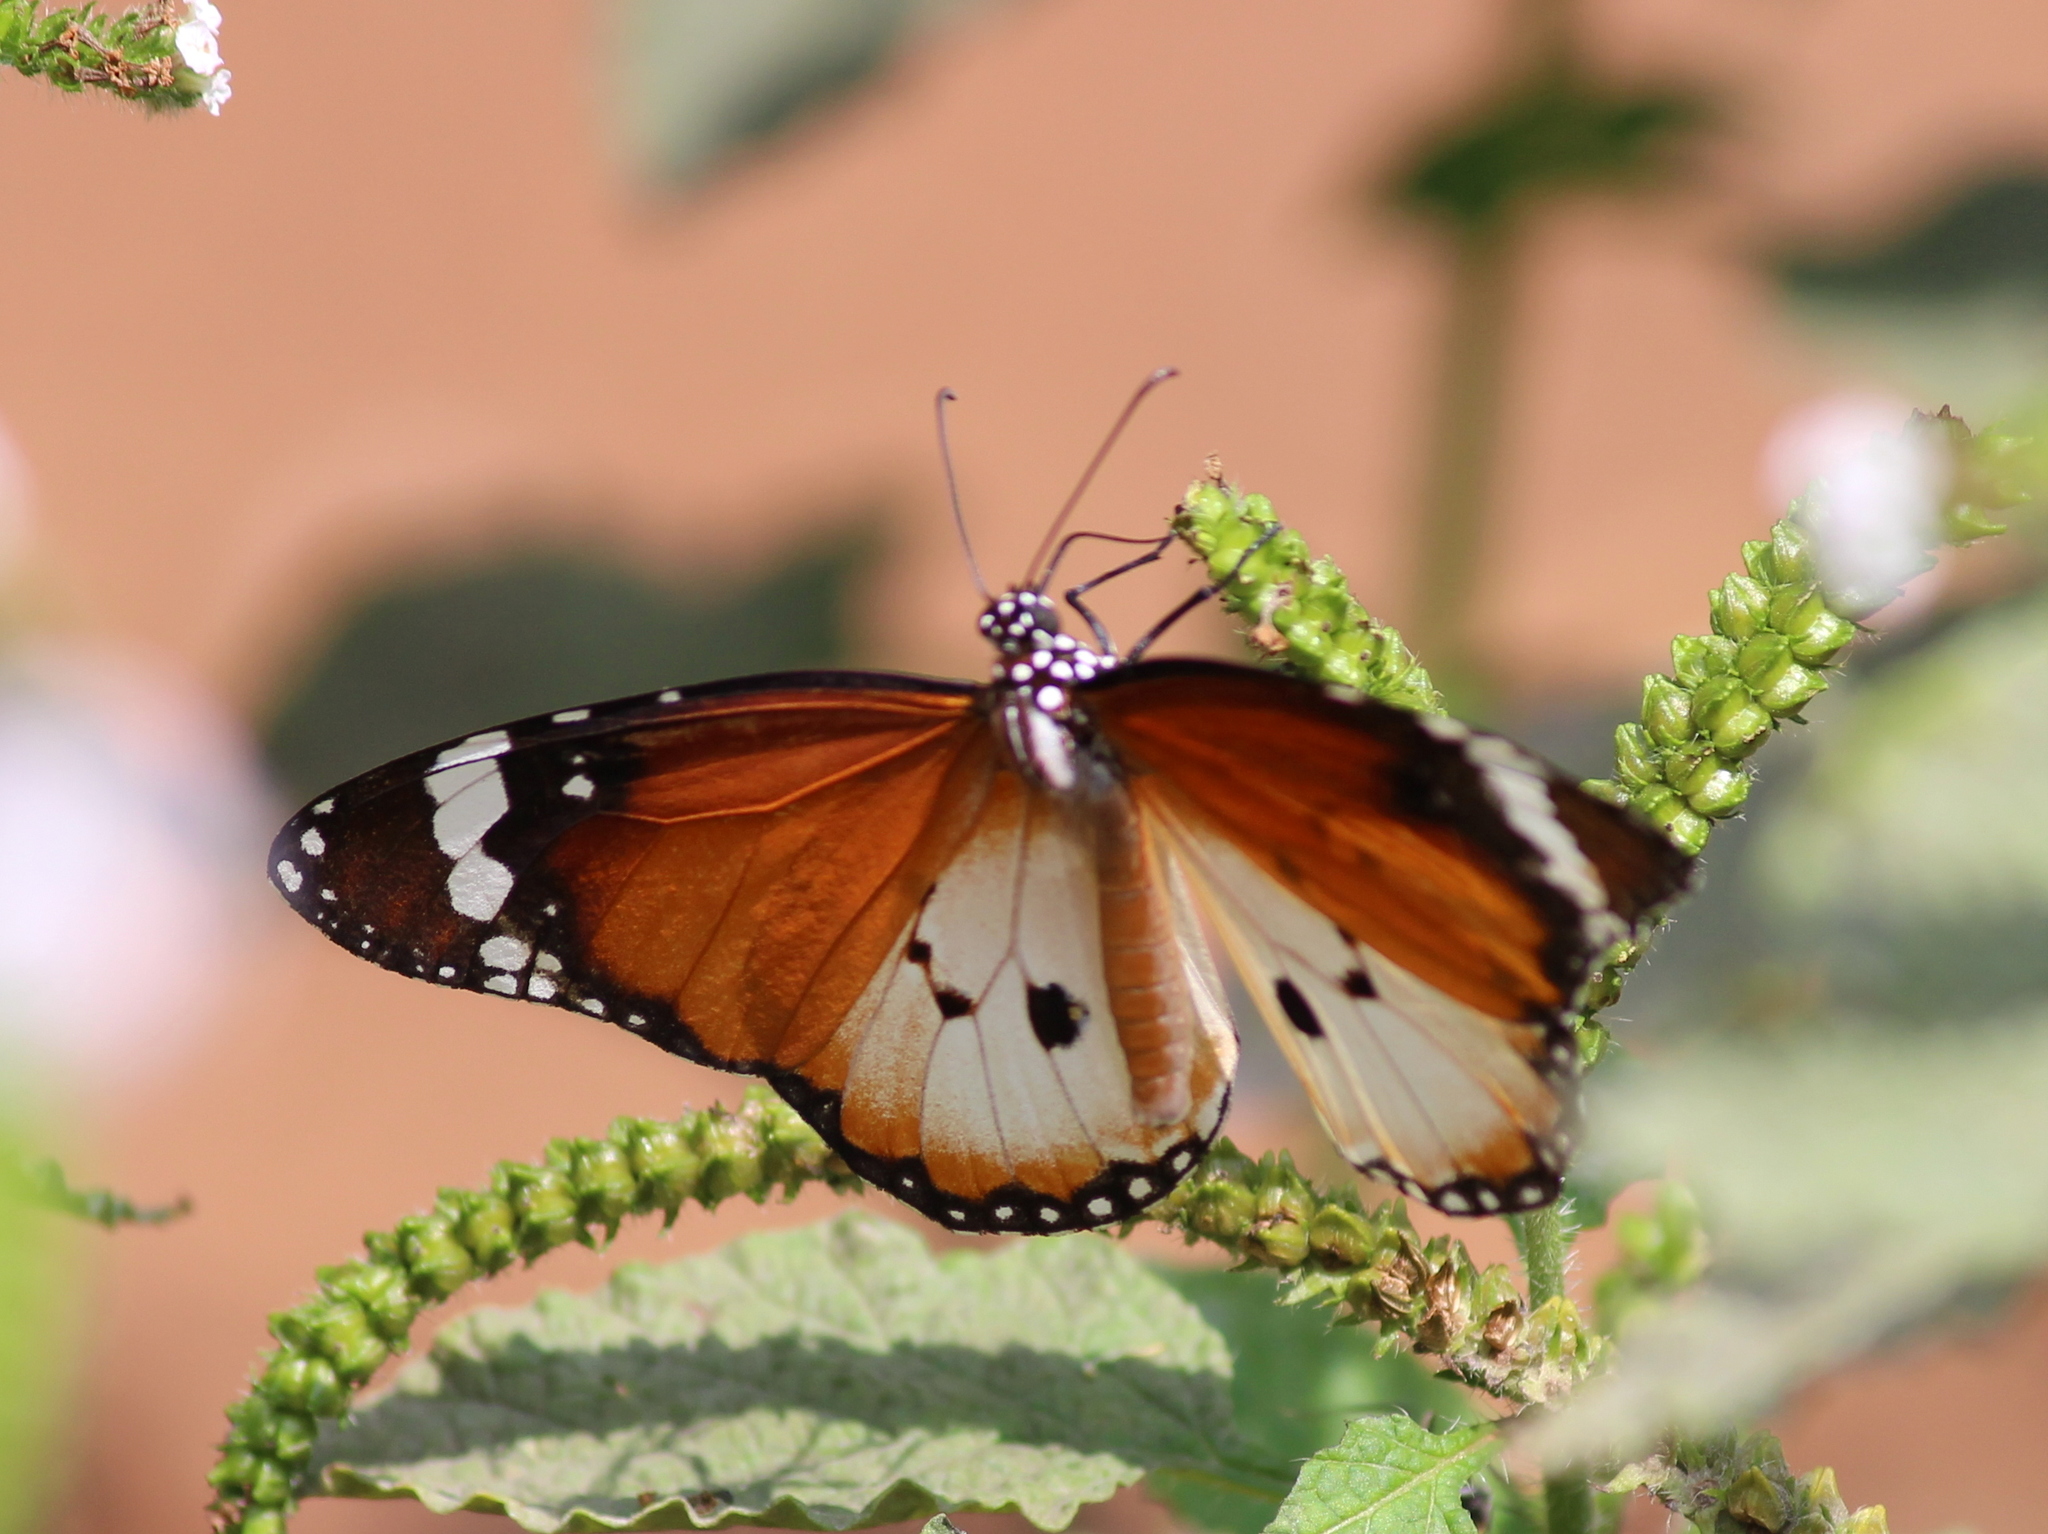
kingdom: Animalia
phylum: Arthropoda
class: Insecta
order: Lepidoptera
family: Nymphalidae
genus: Danaus
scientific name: Danaus chrysippus
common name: Plain tiger
